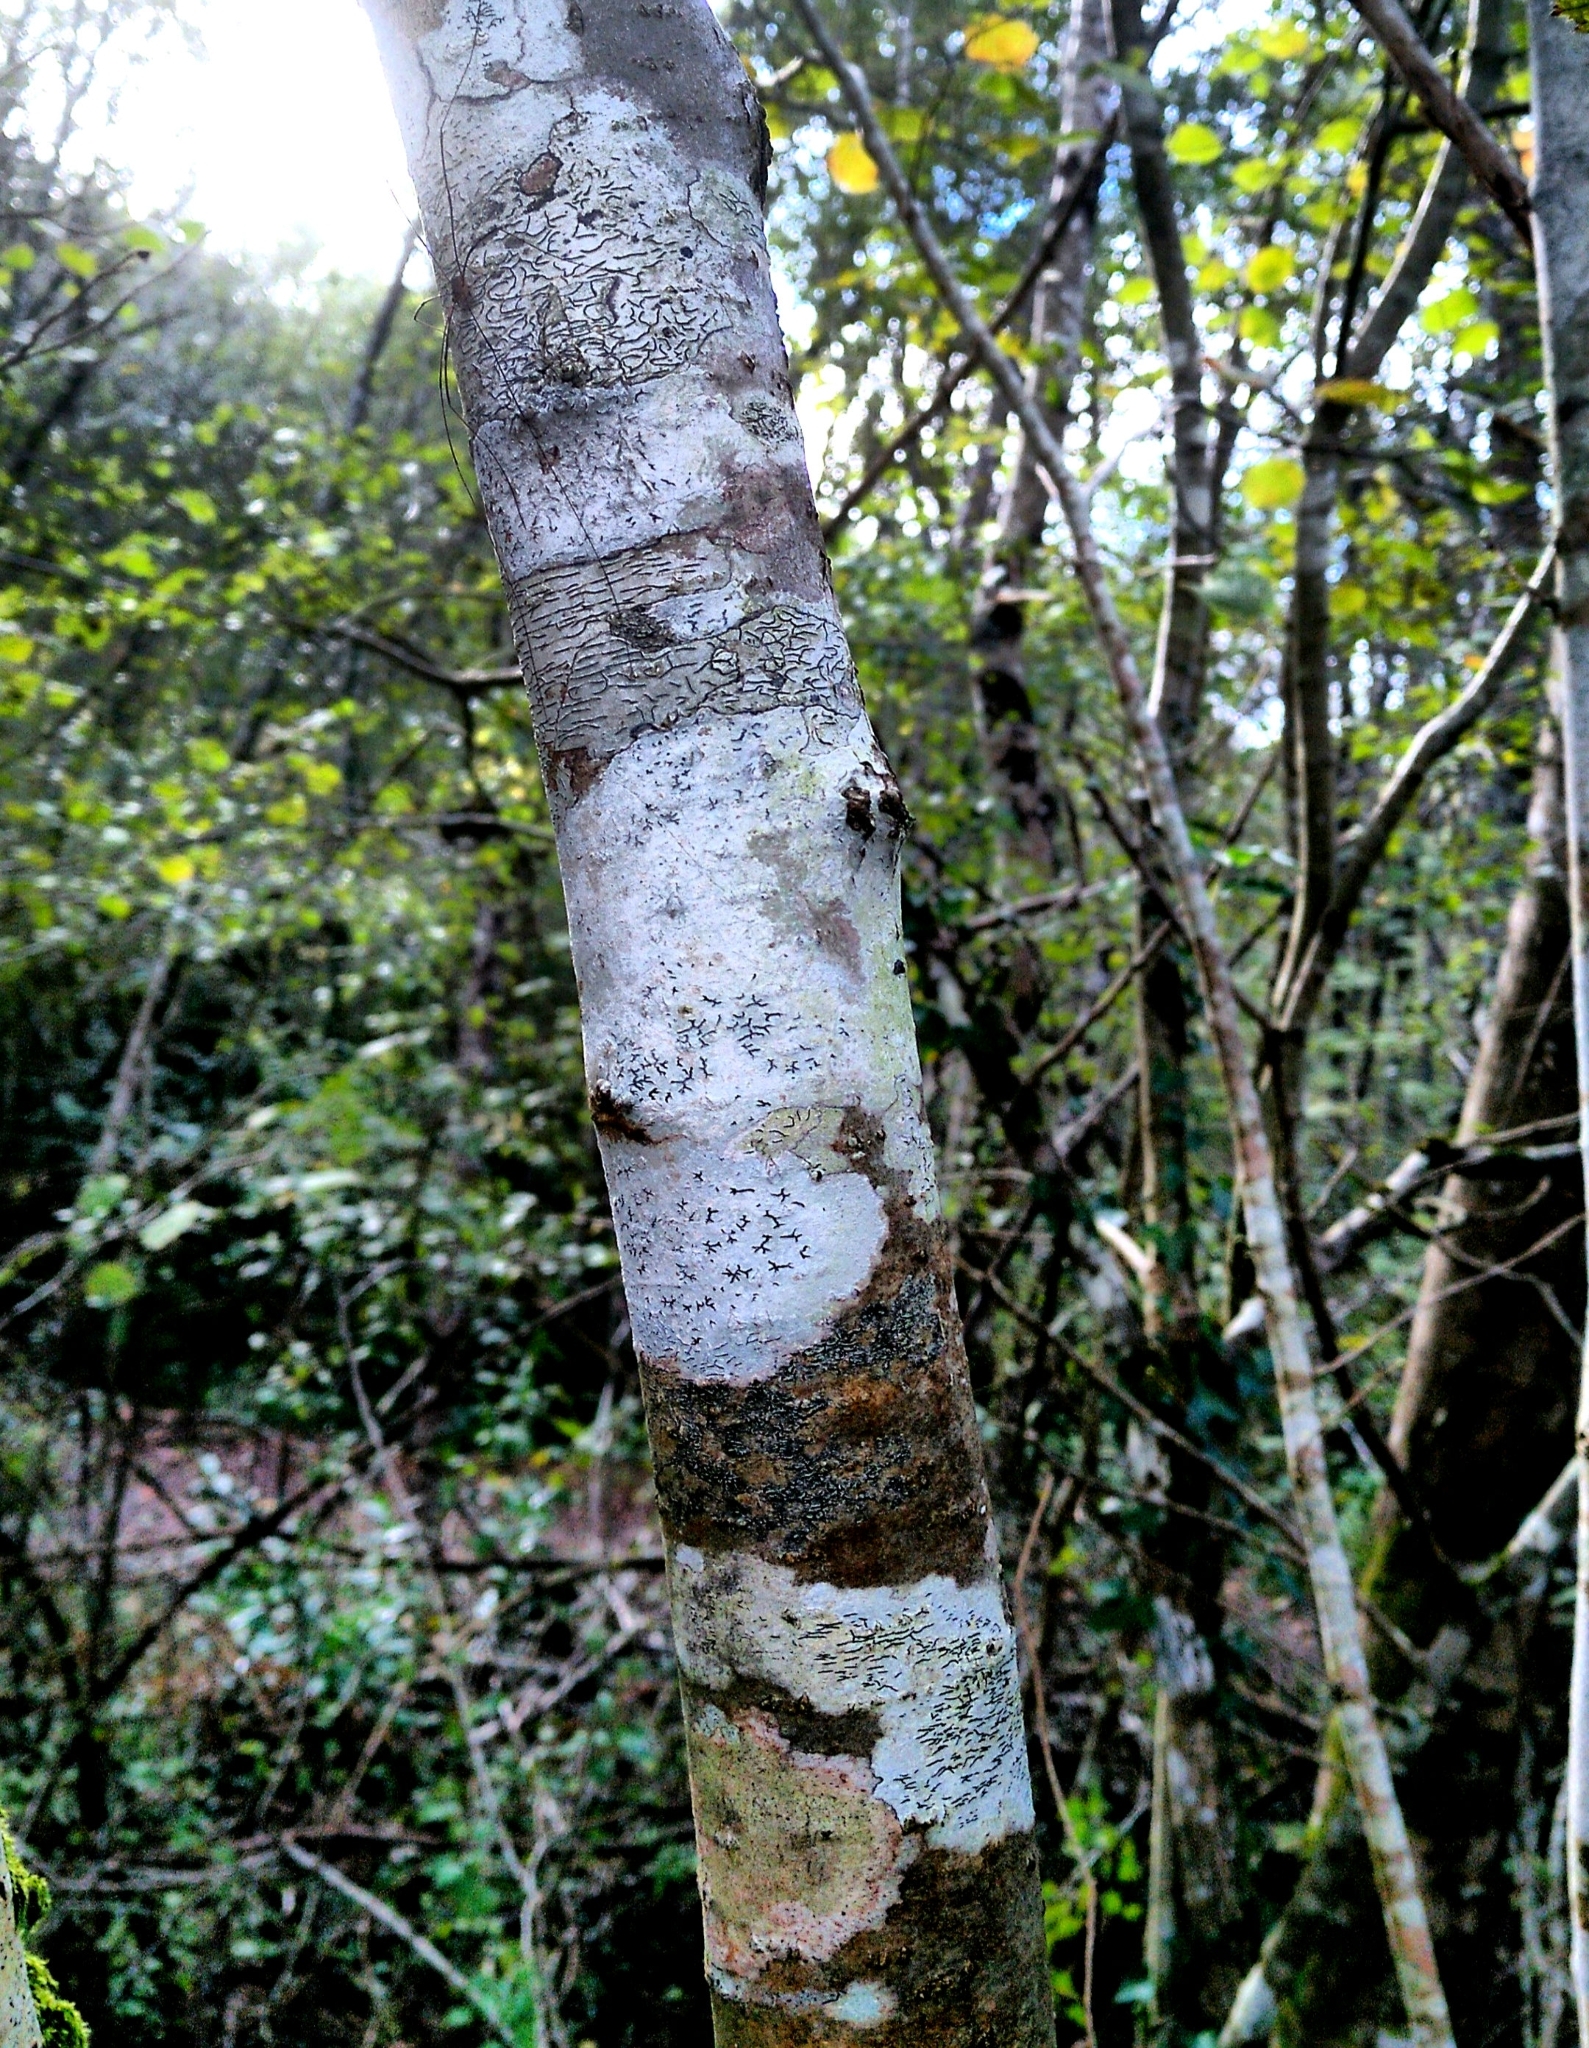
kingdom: Fungi
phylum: Ascomycota
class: Lecanoromycetes
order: Ostropales
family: Graphidaceae
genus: Graphis
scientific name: Graphis scripta
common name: Script lichen
